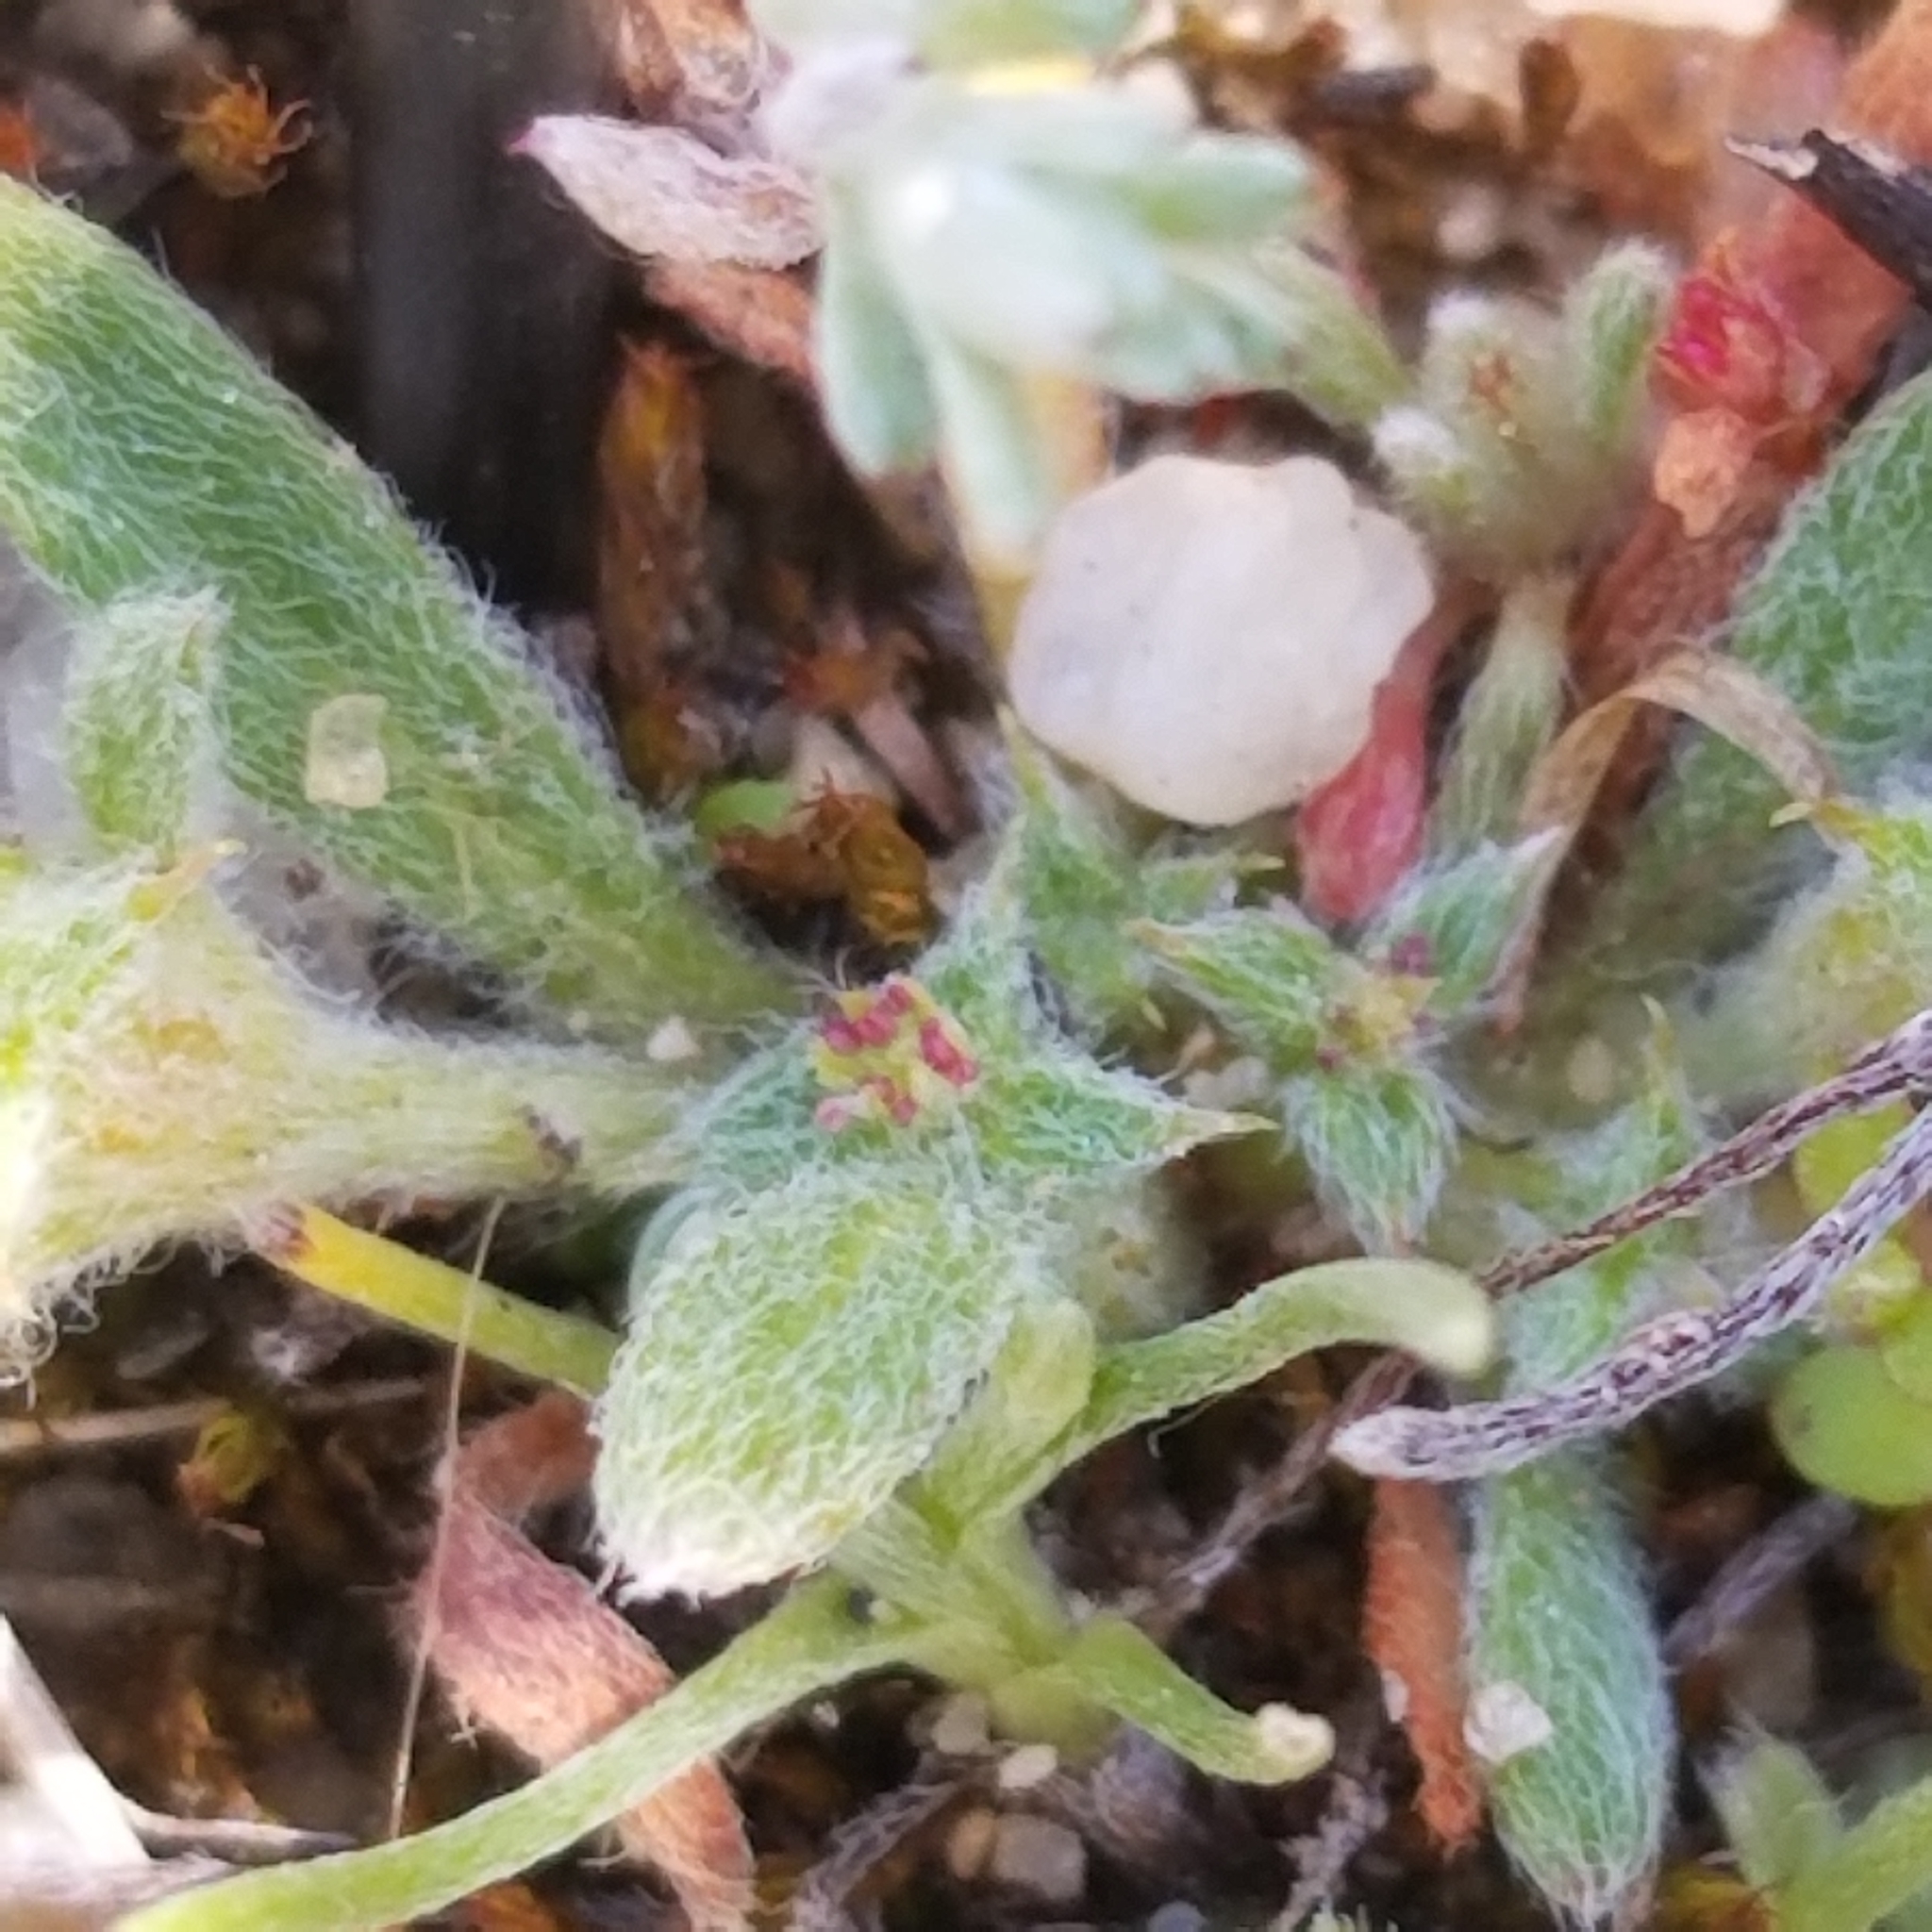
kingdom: Plantae
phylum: Tracheophyta
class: Magnoliopsida
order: Caryophyllales
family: Polygonaceae
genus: Chorizanthe
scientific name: Chorizanthe orcuttiana
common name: Orcutt's spineflower
